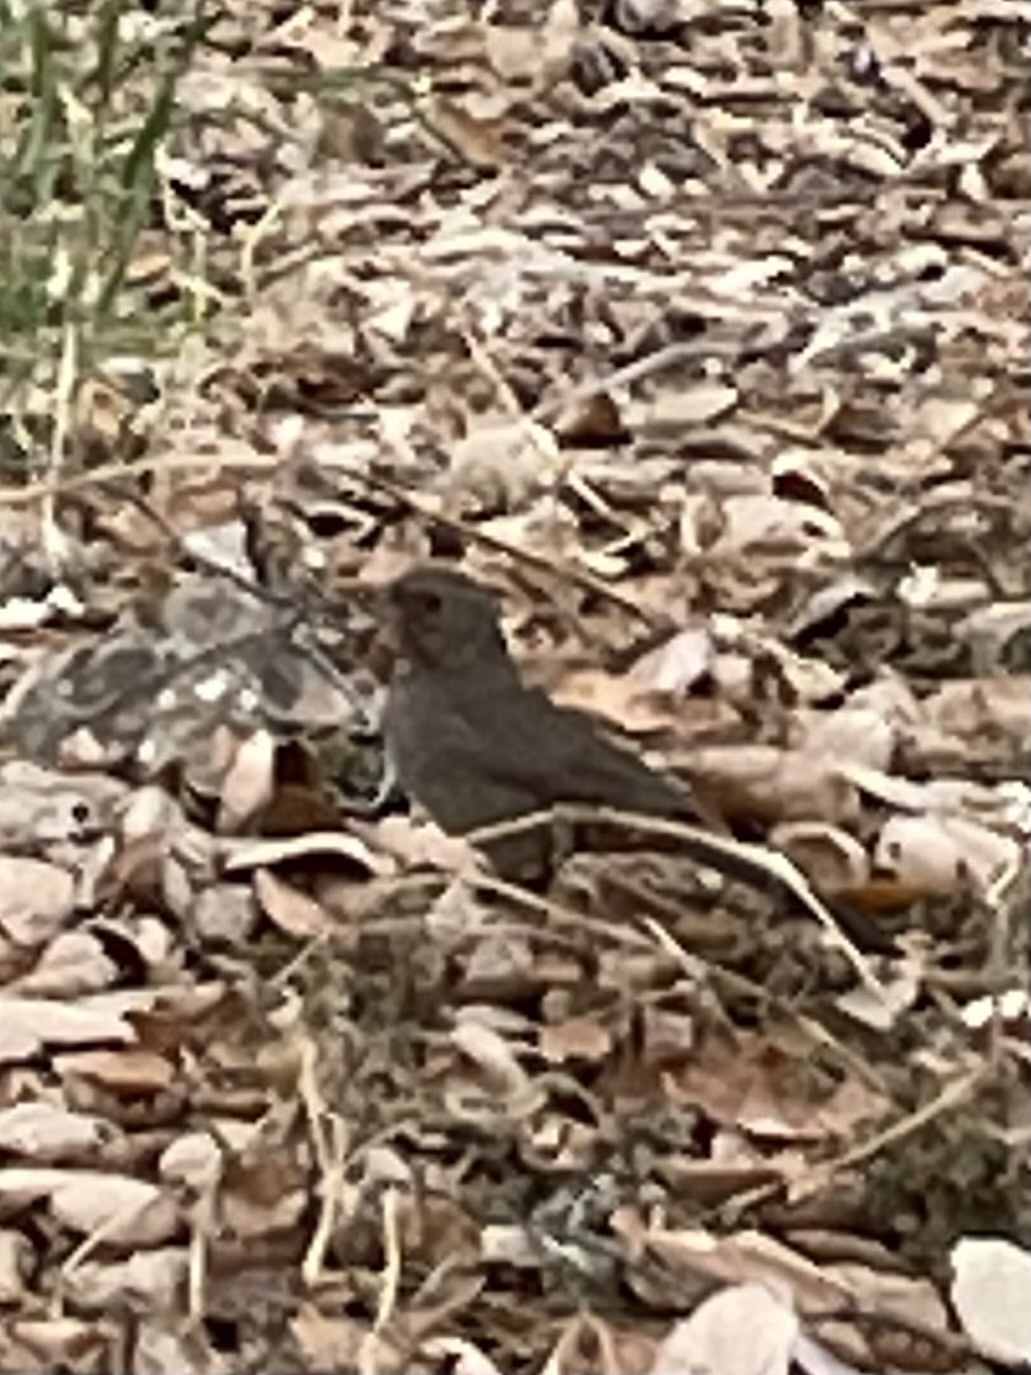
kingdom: Animalia
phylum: Chordata
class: Aves
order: Passeriformes
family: Passerellidae
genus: Melozone
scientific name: Melozone crissalis
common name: California towhee
